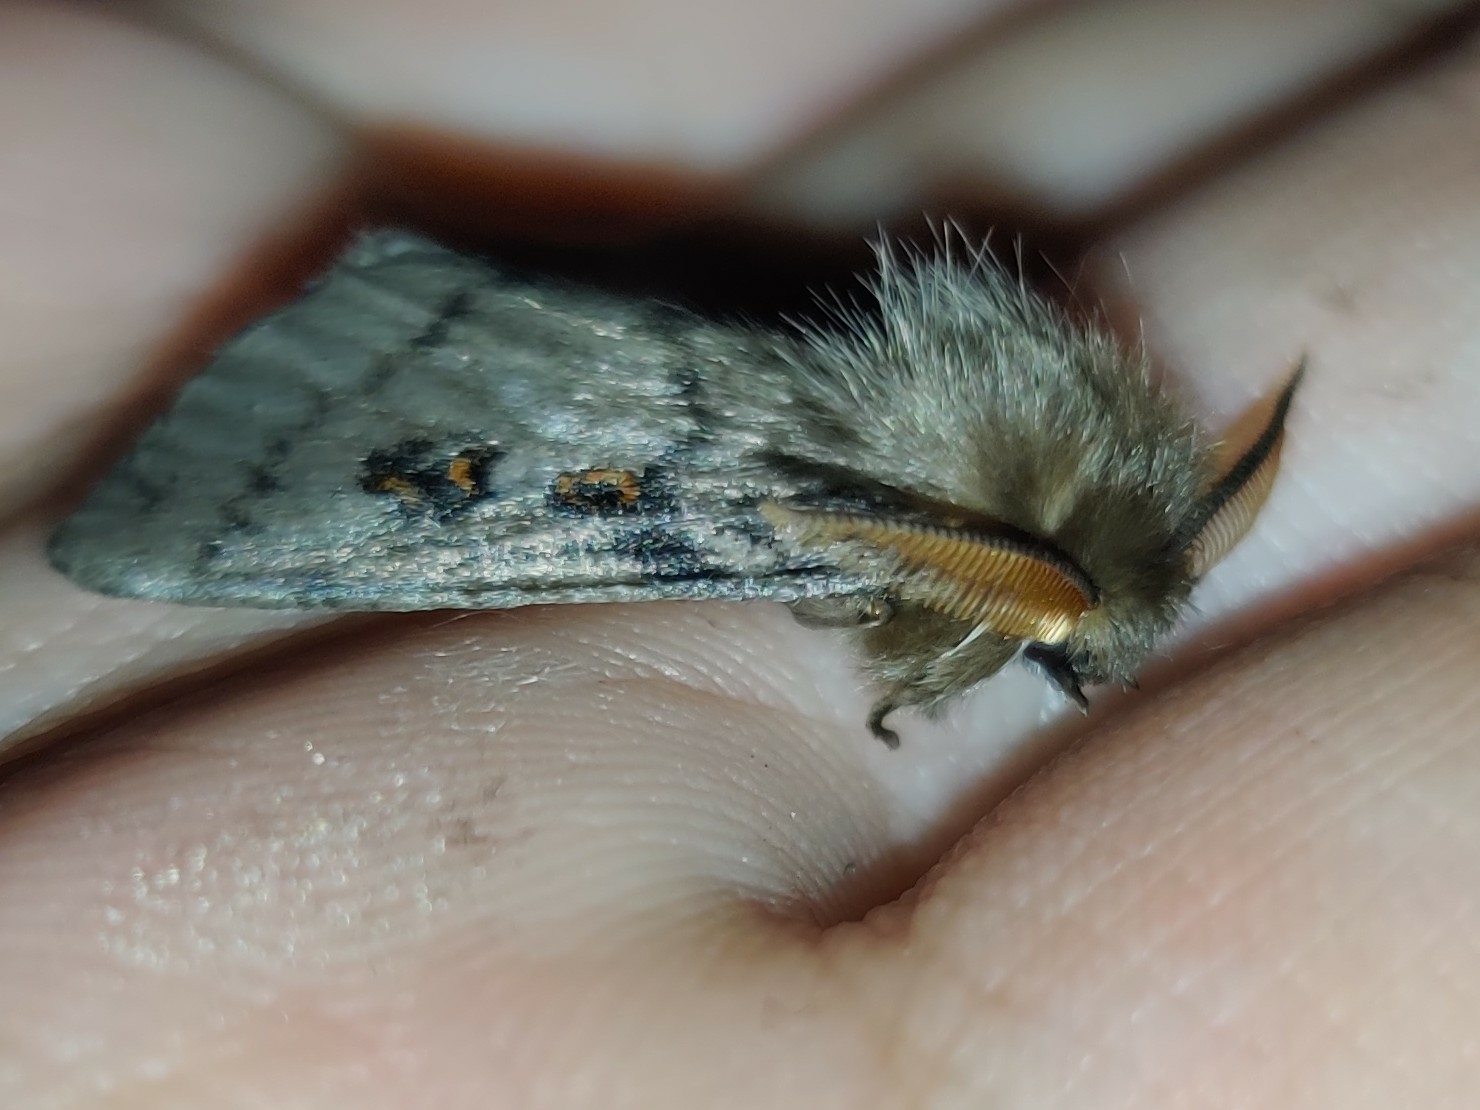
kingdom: Animalia
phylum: Arthropoda
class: Insecta
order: Lepidoptera
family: Erebidae
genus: Leptocneria
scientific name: Leptocneria reducta
